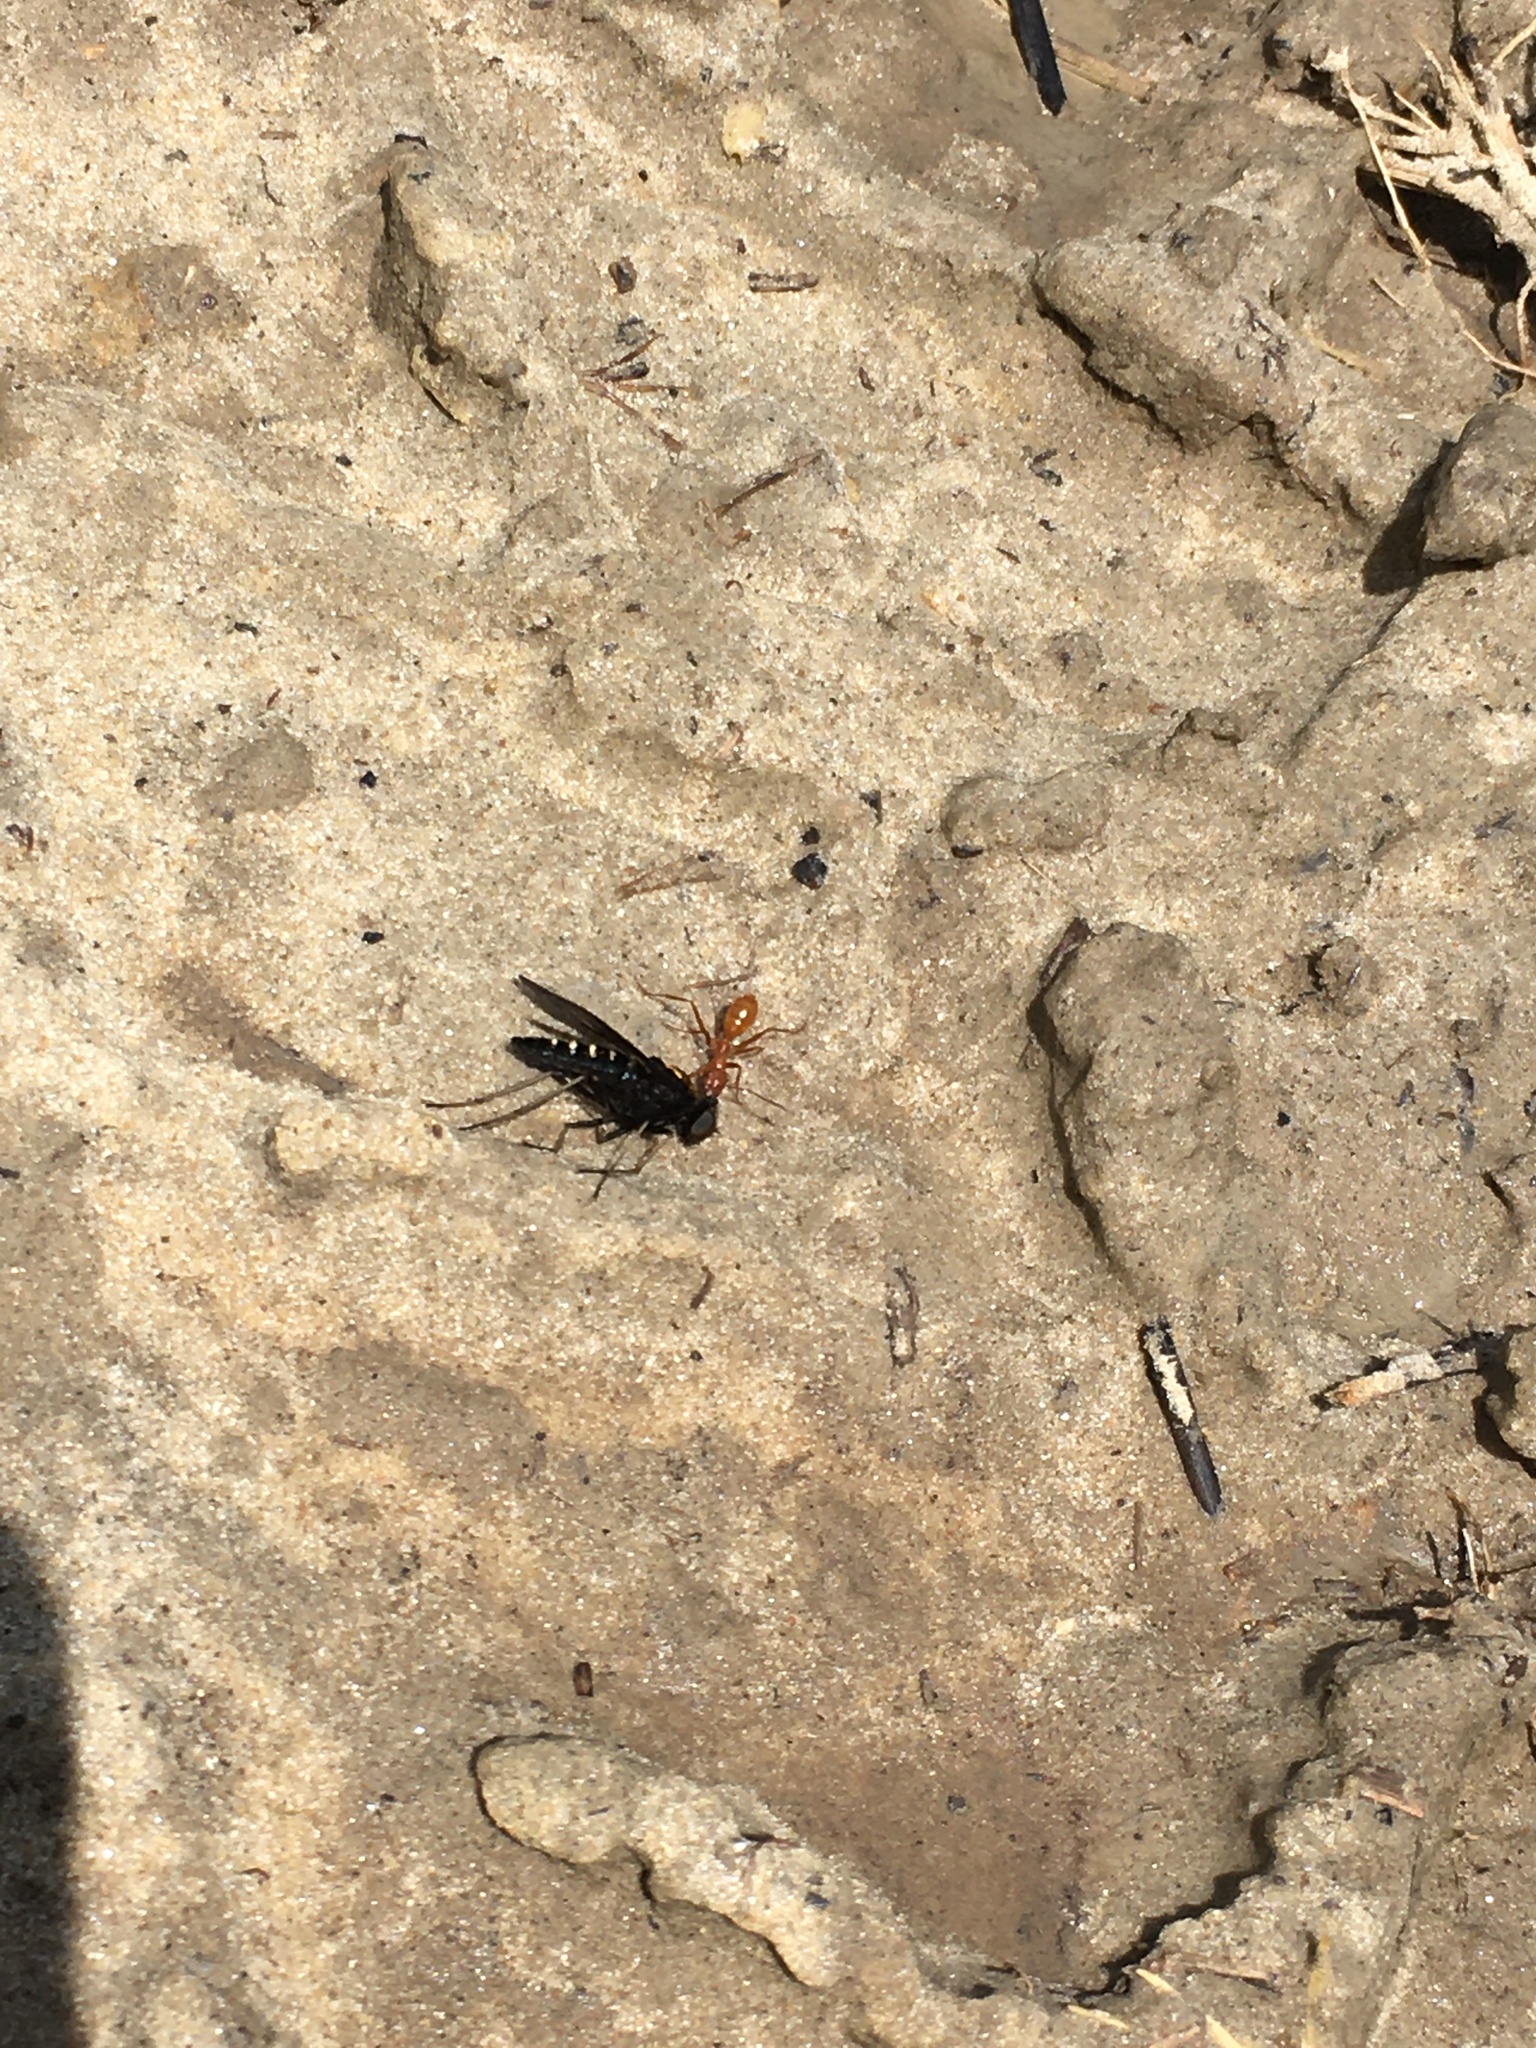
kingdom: Animalia
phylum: Arthropoda
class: Insecta
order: Diptera
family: Rhagionidae
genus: Chrysopilus
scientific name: Chrysopilus thoracicus
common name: Golden-backed snipe fly
